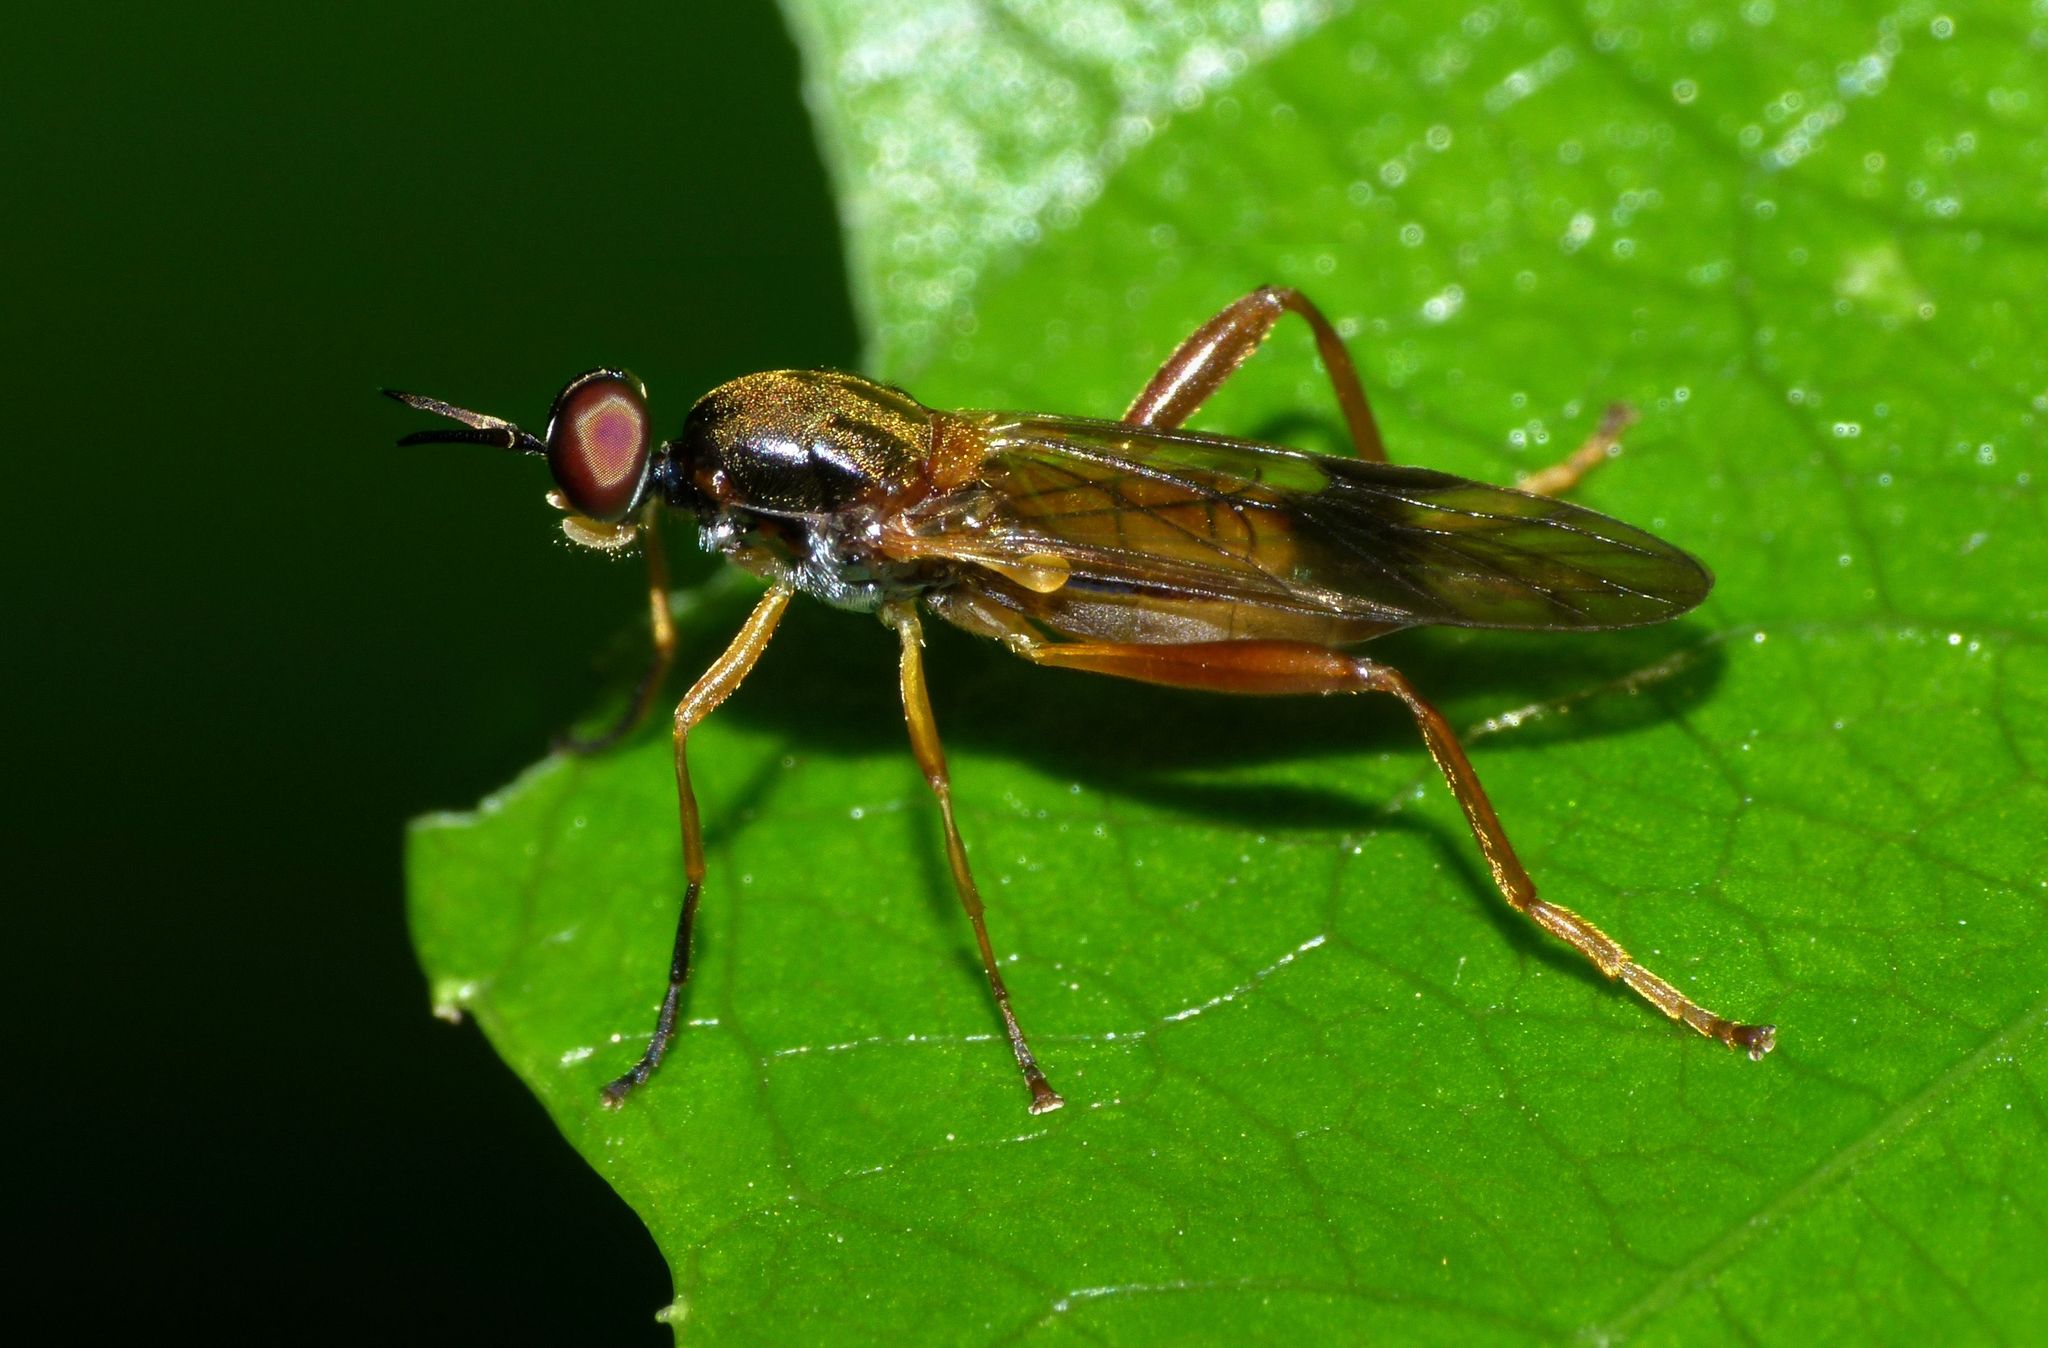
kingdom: Animalia
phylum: Arthropoda
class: Insecta
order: Diptera
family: Stratiomyidae
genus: Benhamyia
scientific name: Benhamyia apicalis
